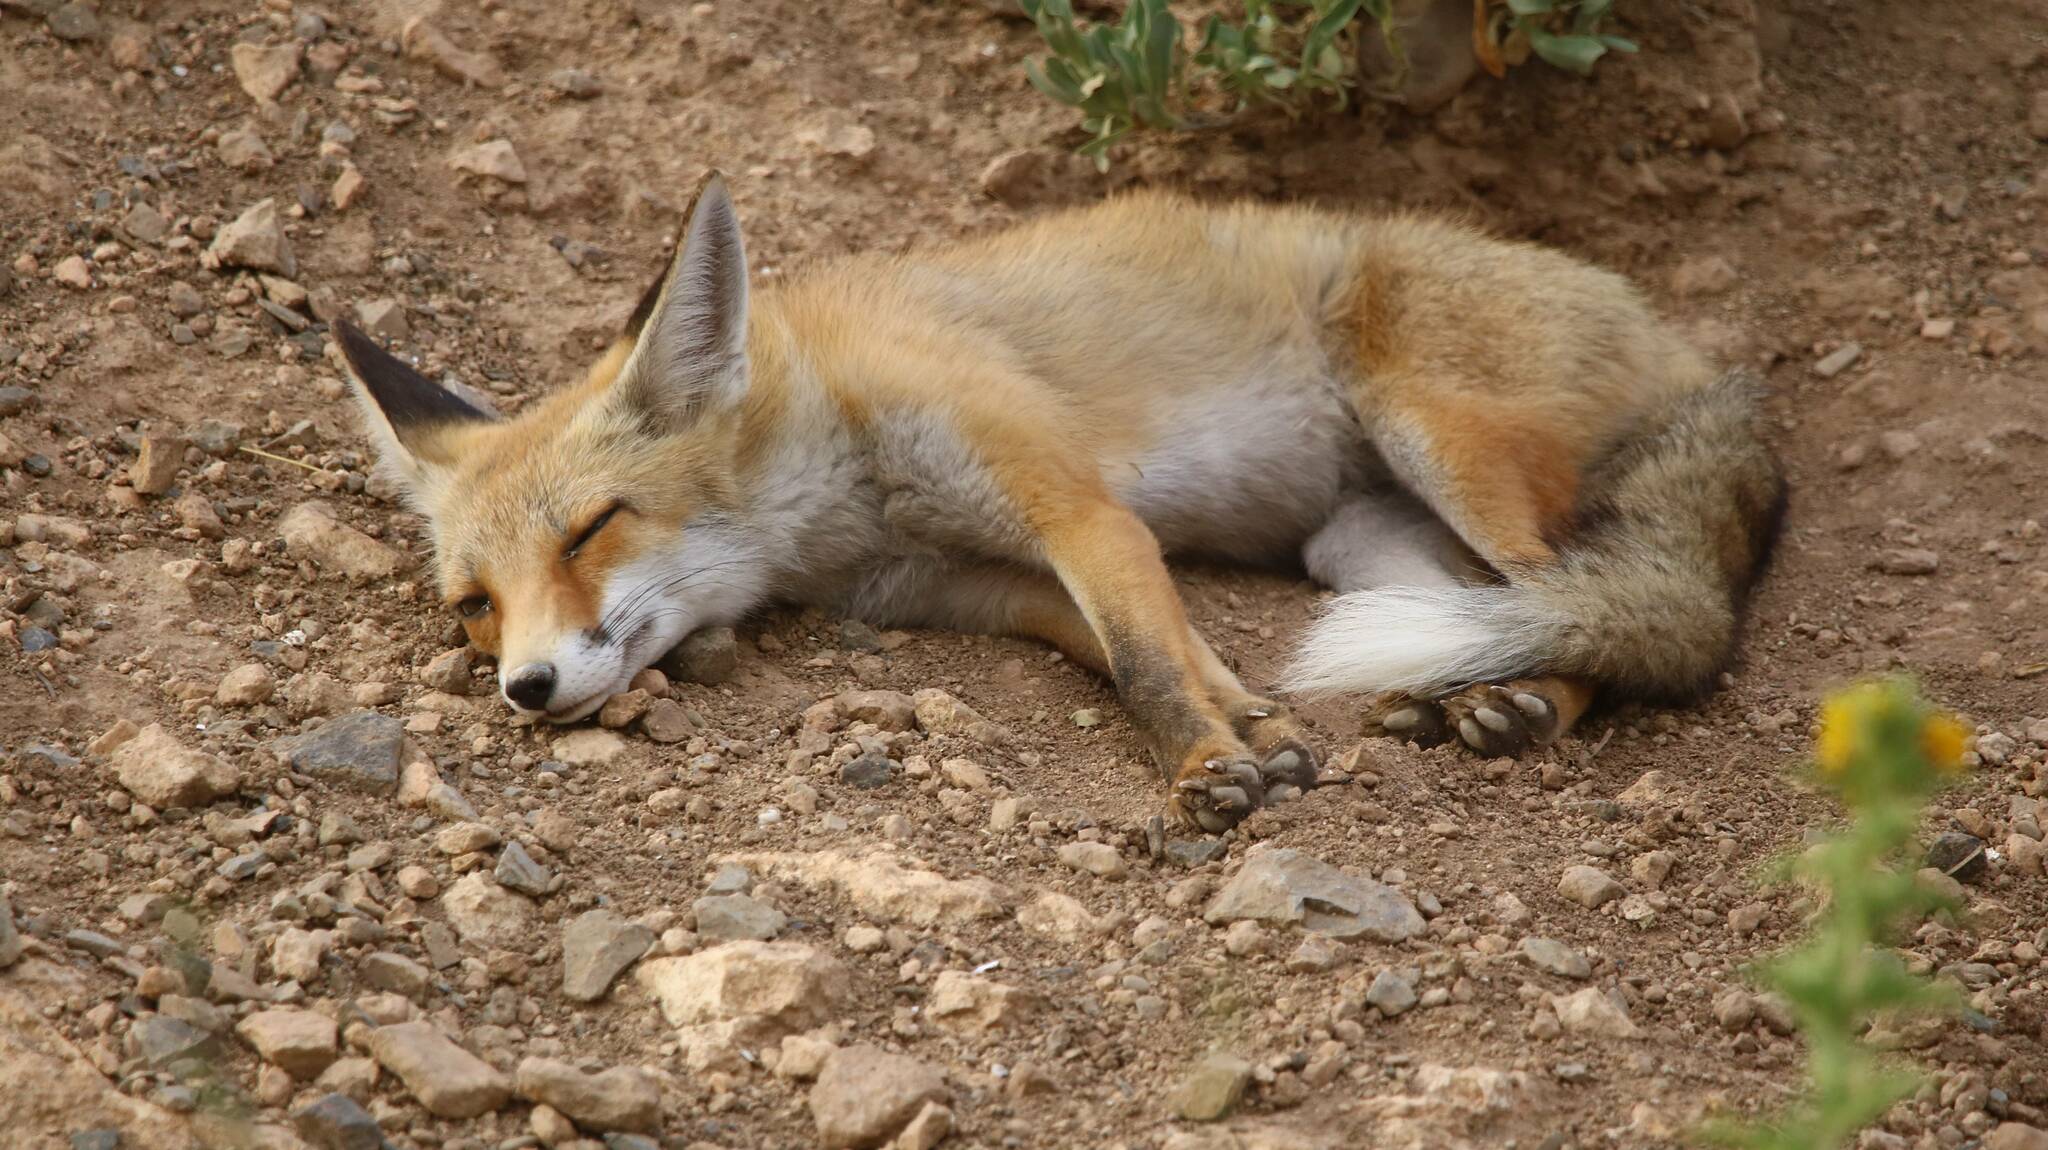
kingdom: Animalia
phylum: Chordata
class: Mammalia
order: Carnivora
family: Canidae
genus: Vulpes
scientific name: Vulpes vulpes
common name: Red fox
